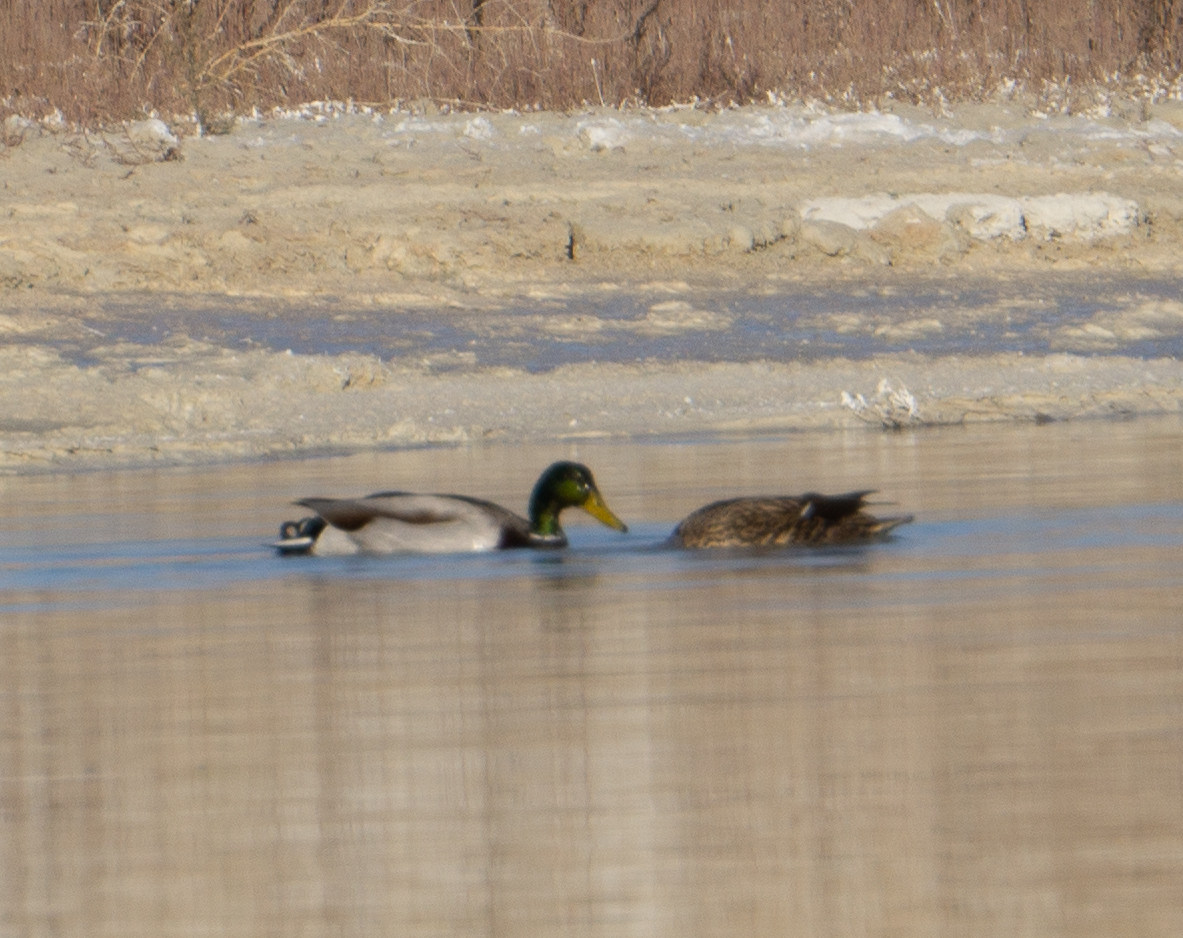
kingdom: Animalia
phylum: Chordata
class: Aves
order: Anseriformes
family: Anatidae
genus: Anas
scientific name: Anas platyrhynchos
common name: Mallard
